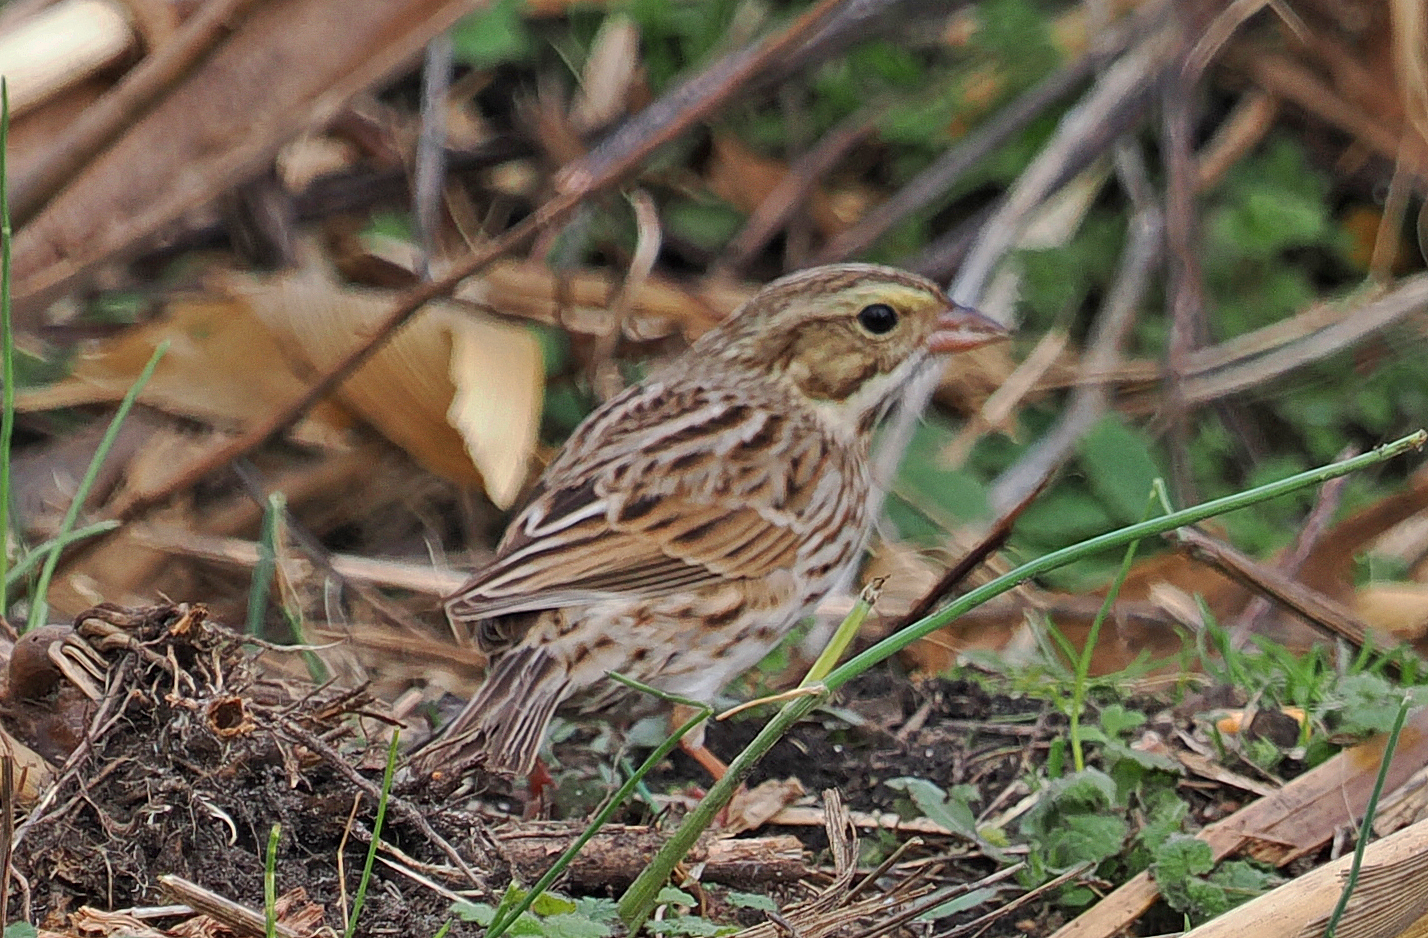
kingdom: Animalia
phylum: Chordata
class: Aves
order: Passeriformes
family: Passerellidae
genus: Passerculus
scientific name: Passerculus sandwichensis
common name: Savannah sparrow
